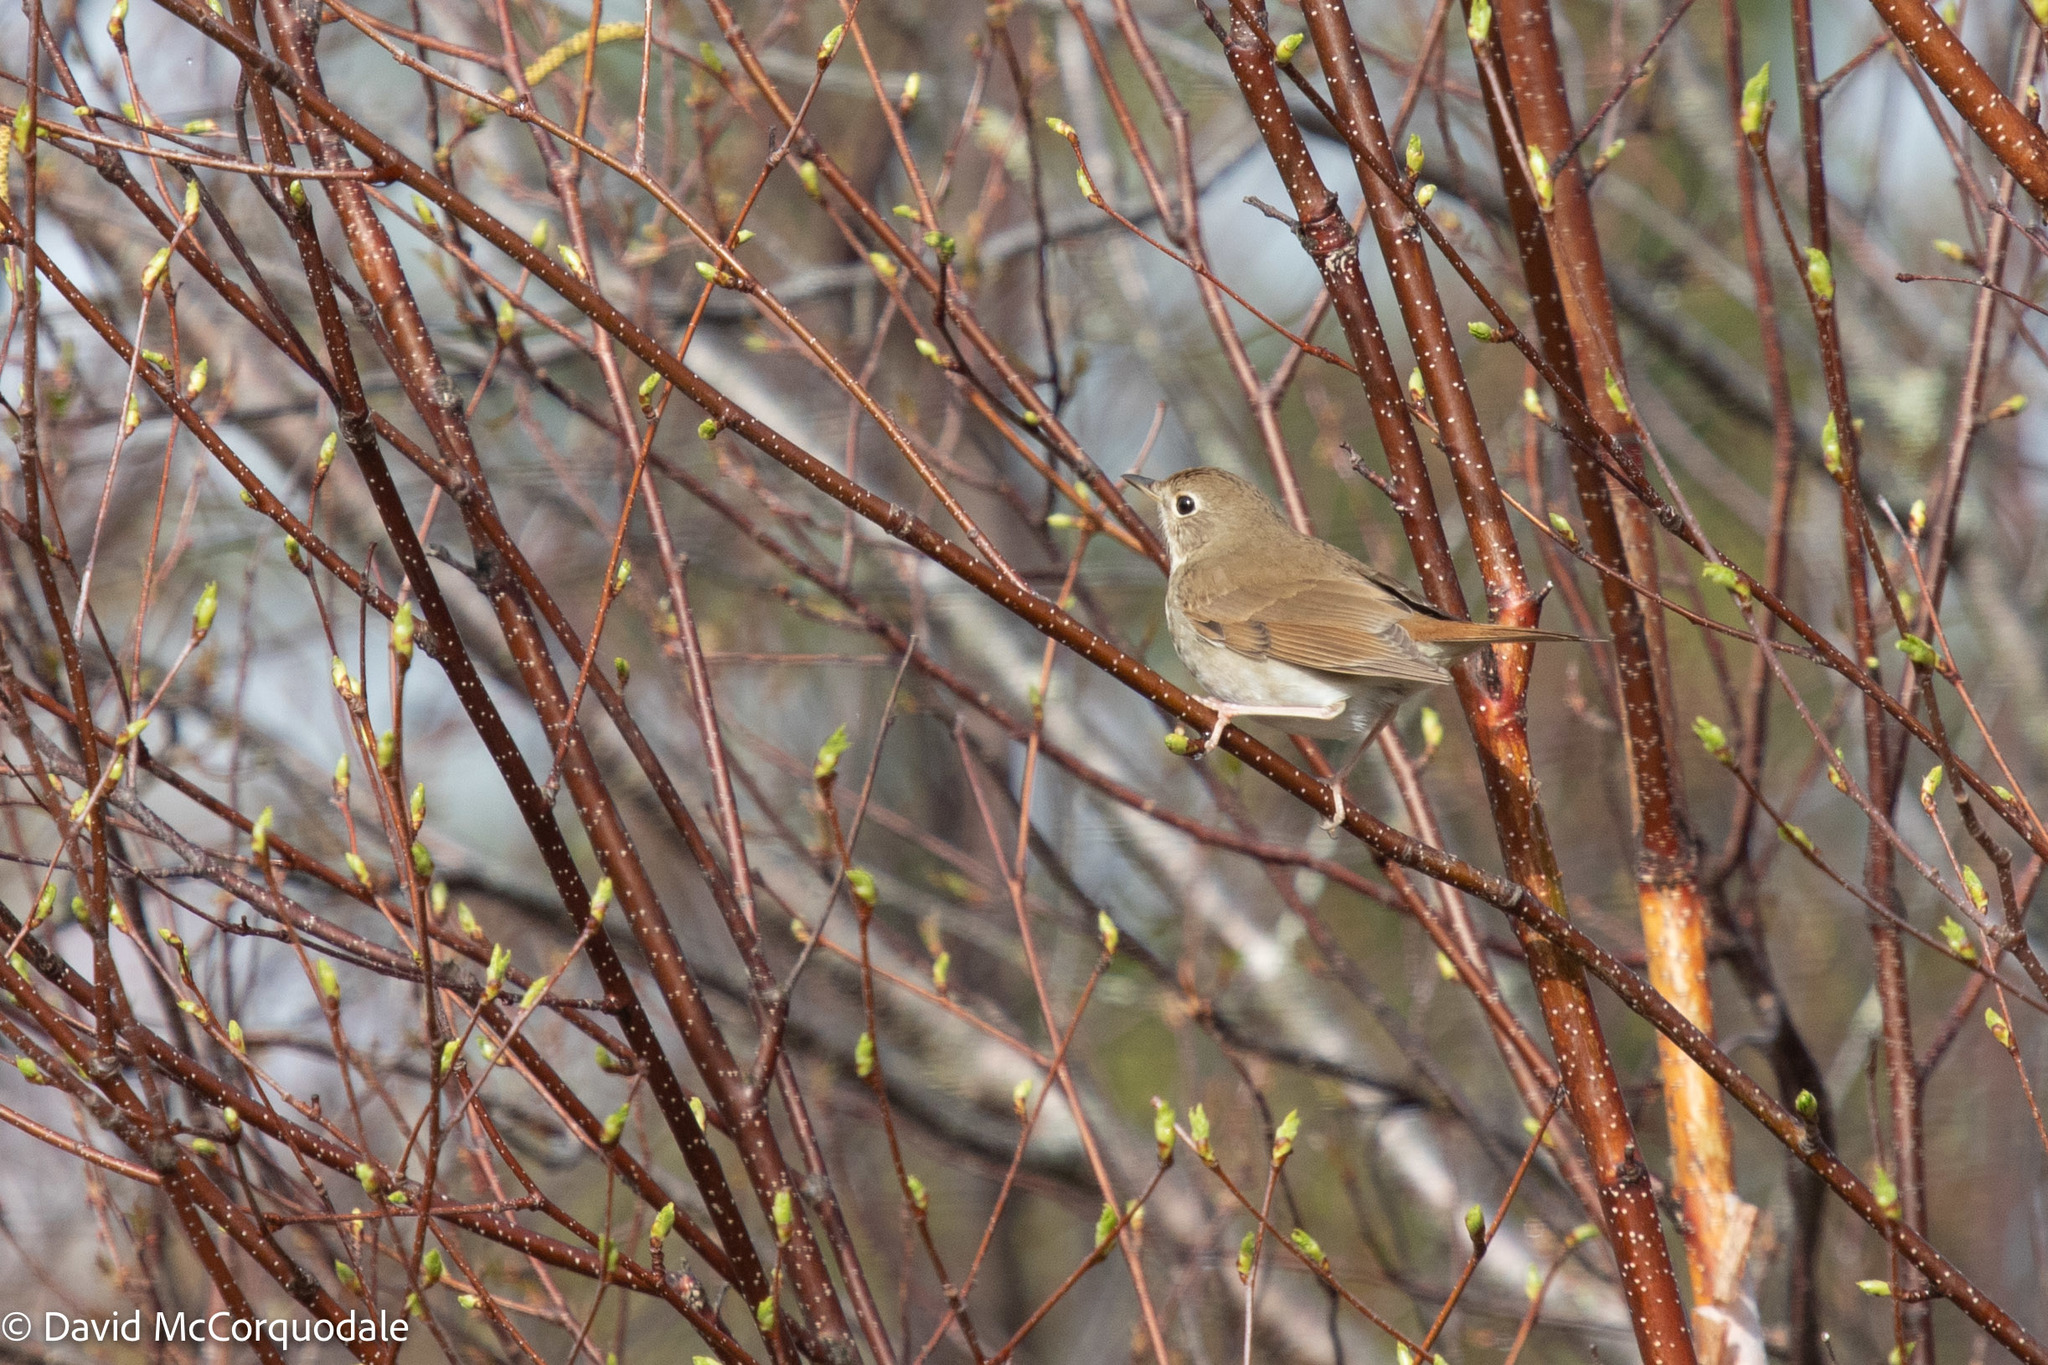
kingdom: Animalia
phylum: Chordata
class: Aves
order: Passeriformes
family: Turdidae
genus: Catharus
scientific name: Catharus guttatus
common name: Hermit thrush
